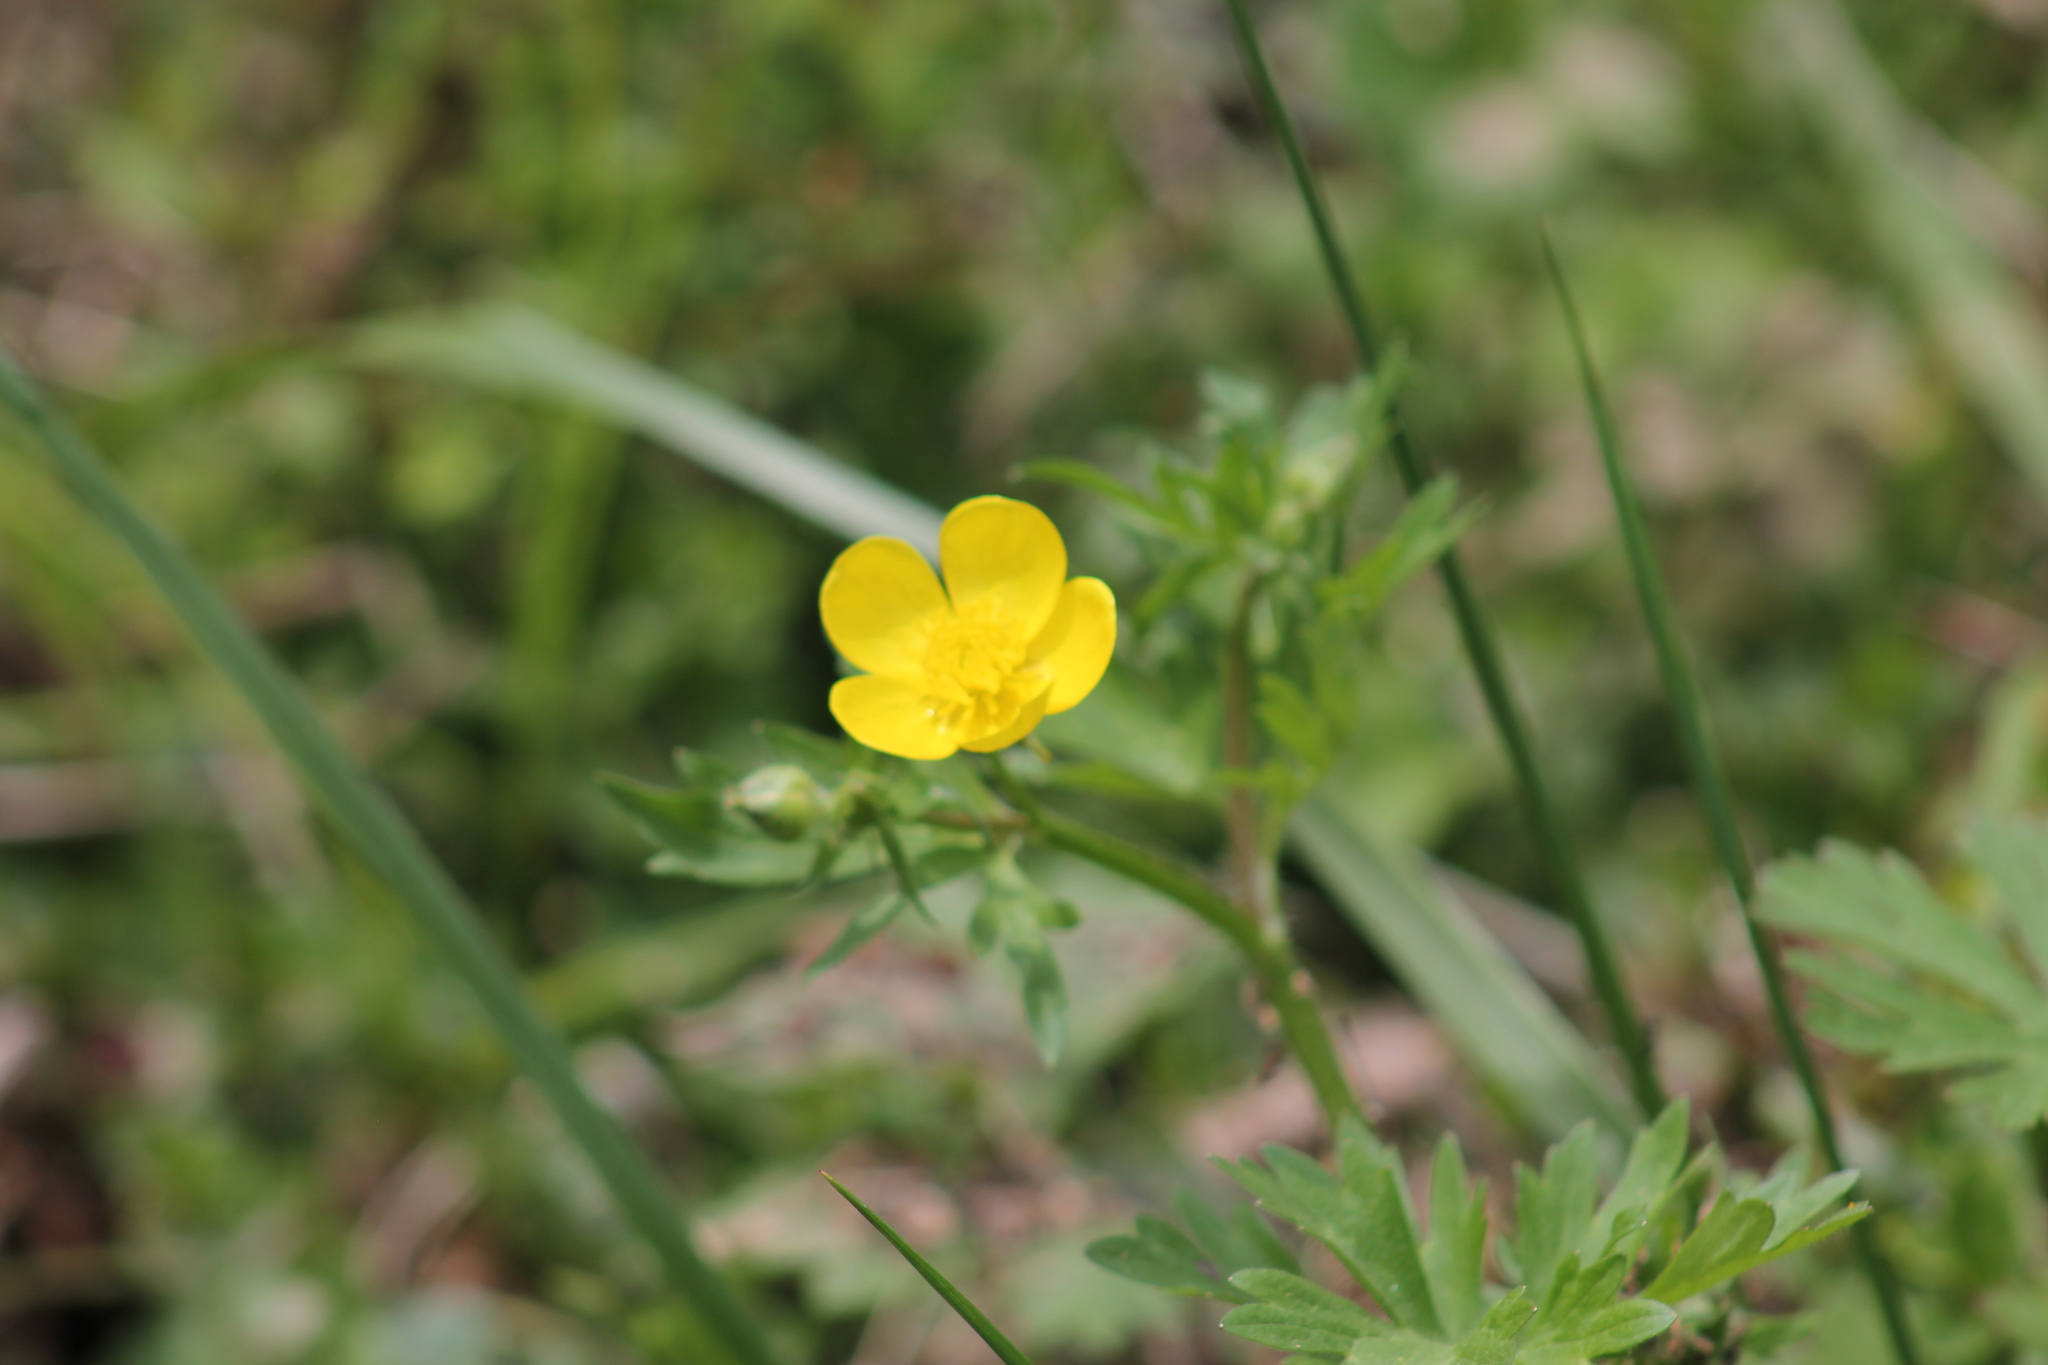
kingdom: Plantae
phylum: Tracheophyta
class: Magnoliopsida
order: Ranunculales
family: Ranunculaceae
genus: Ranunculus
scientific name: Ranunculus sardous
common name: Hairy buttercup
